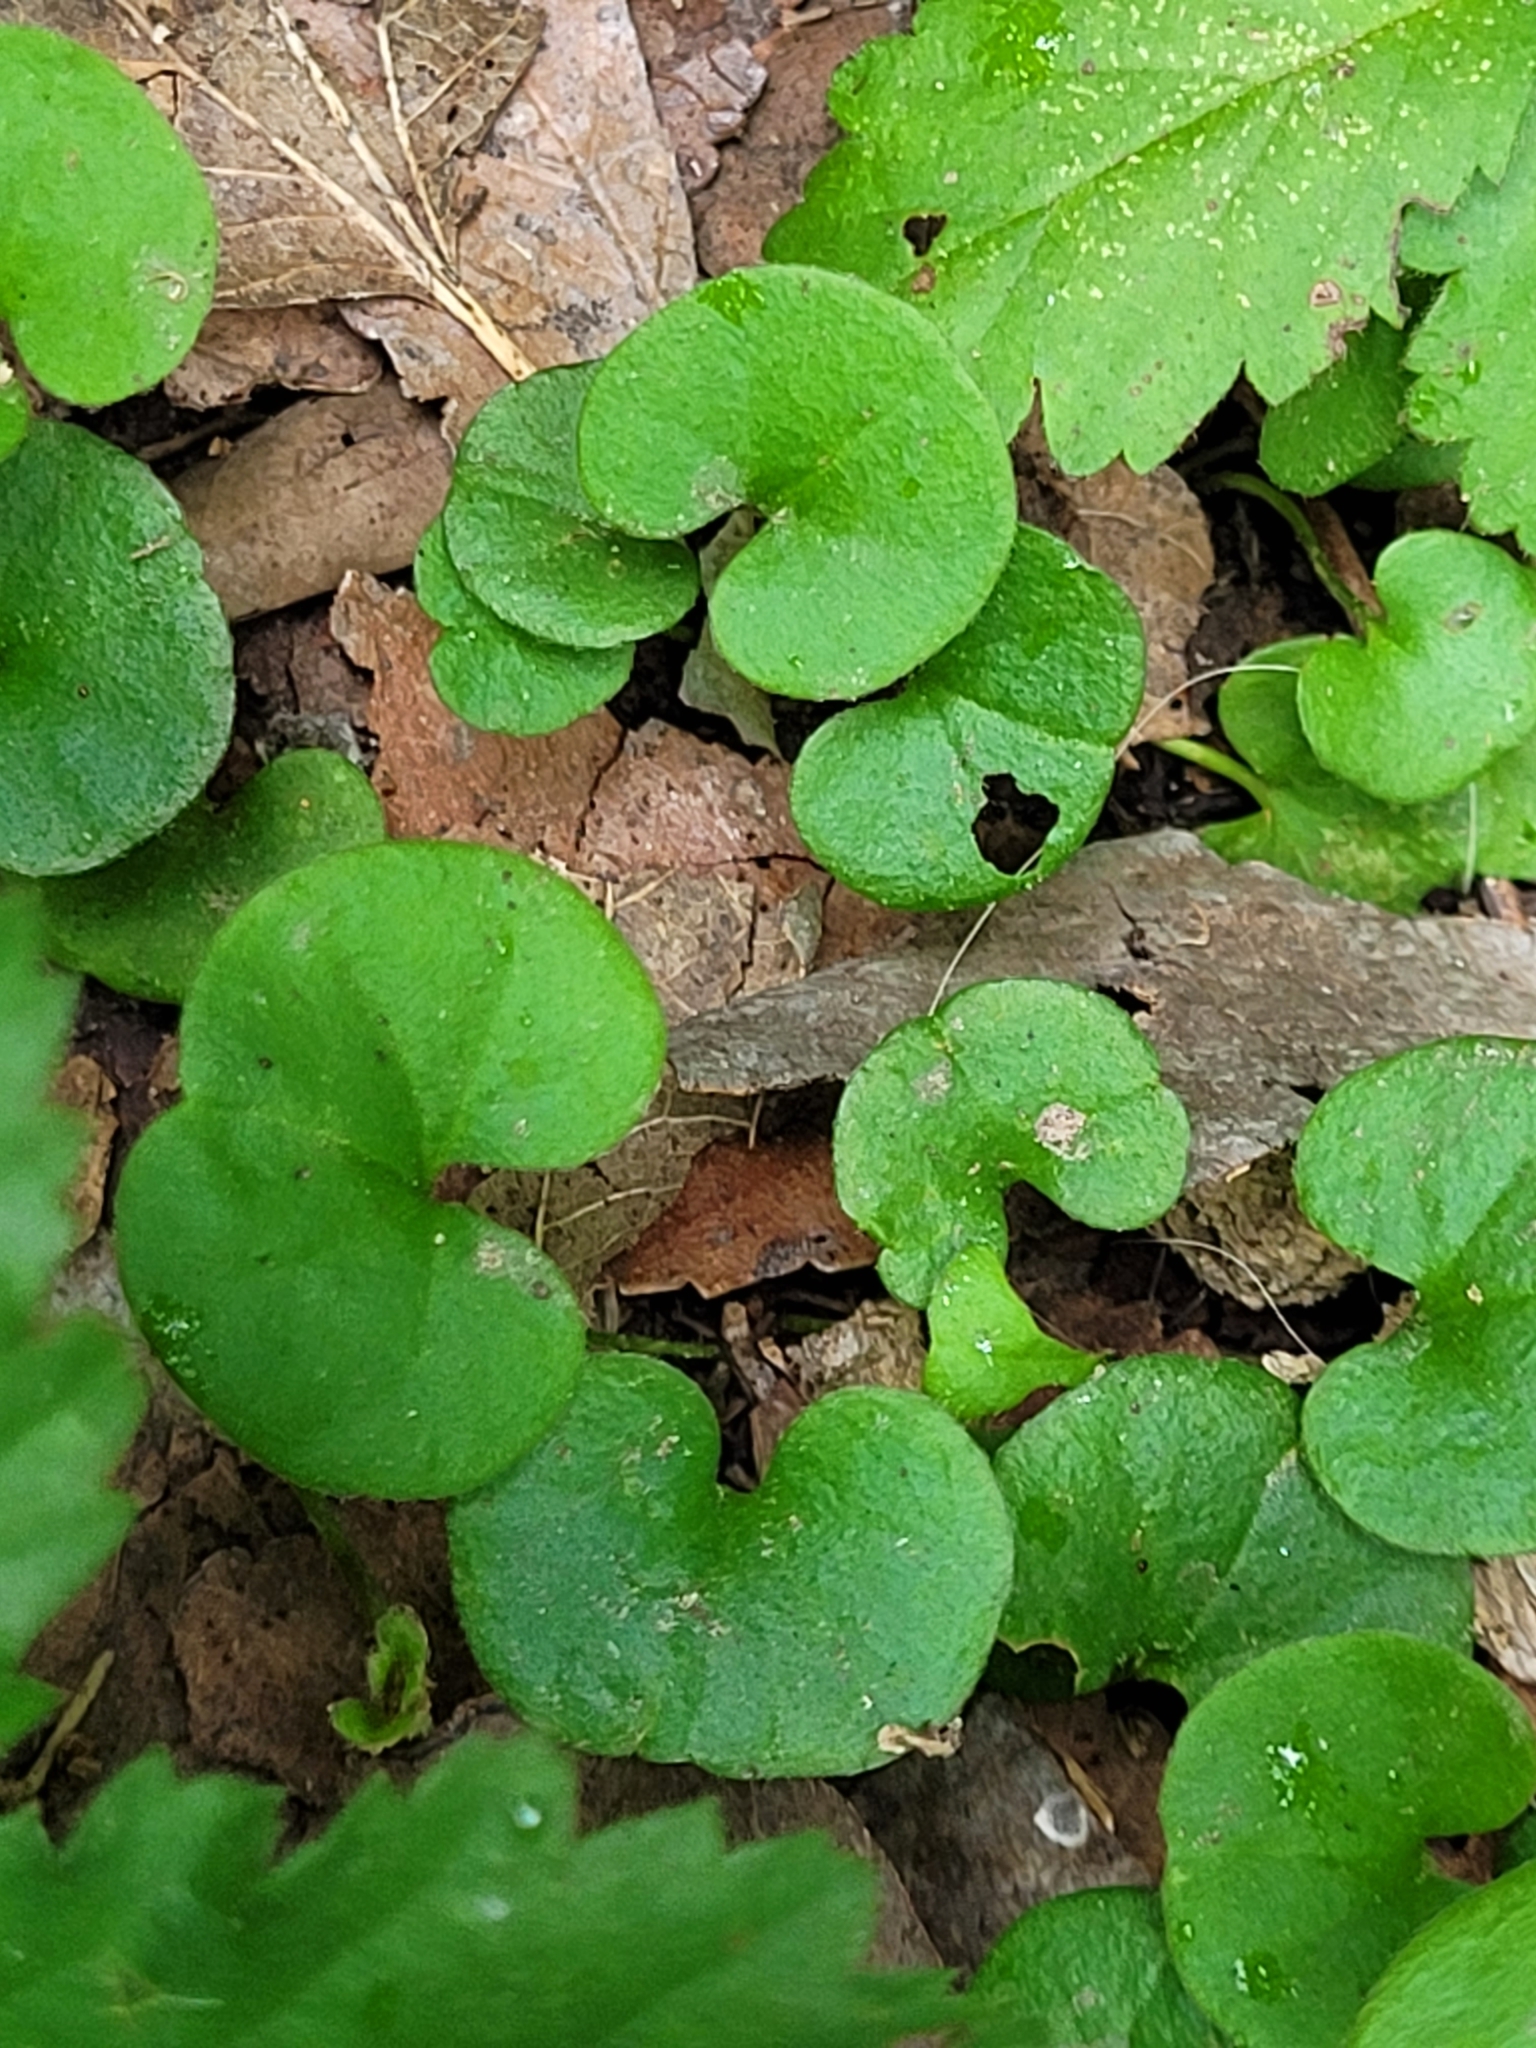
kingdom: Plantae
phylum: Tracheophyta
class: Magnoliopsida
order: Solanales
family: Convolvulaceae
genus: Dichondra
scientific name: Dichondra carolinensis
